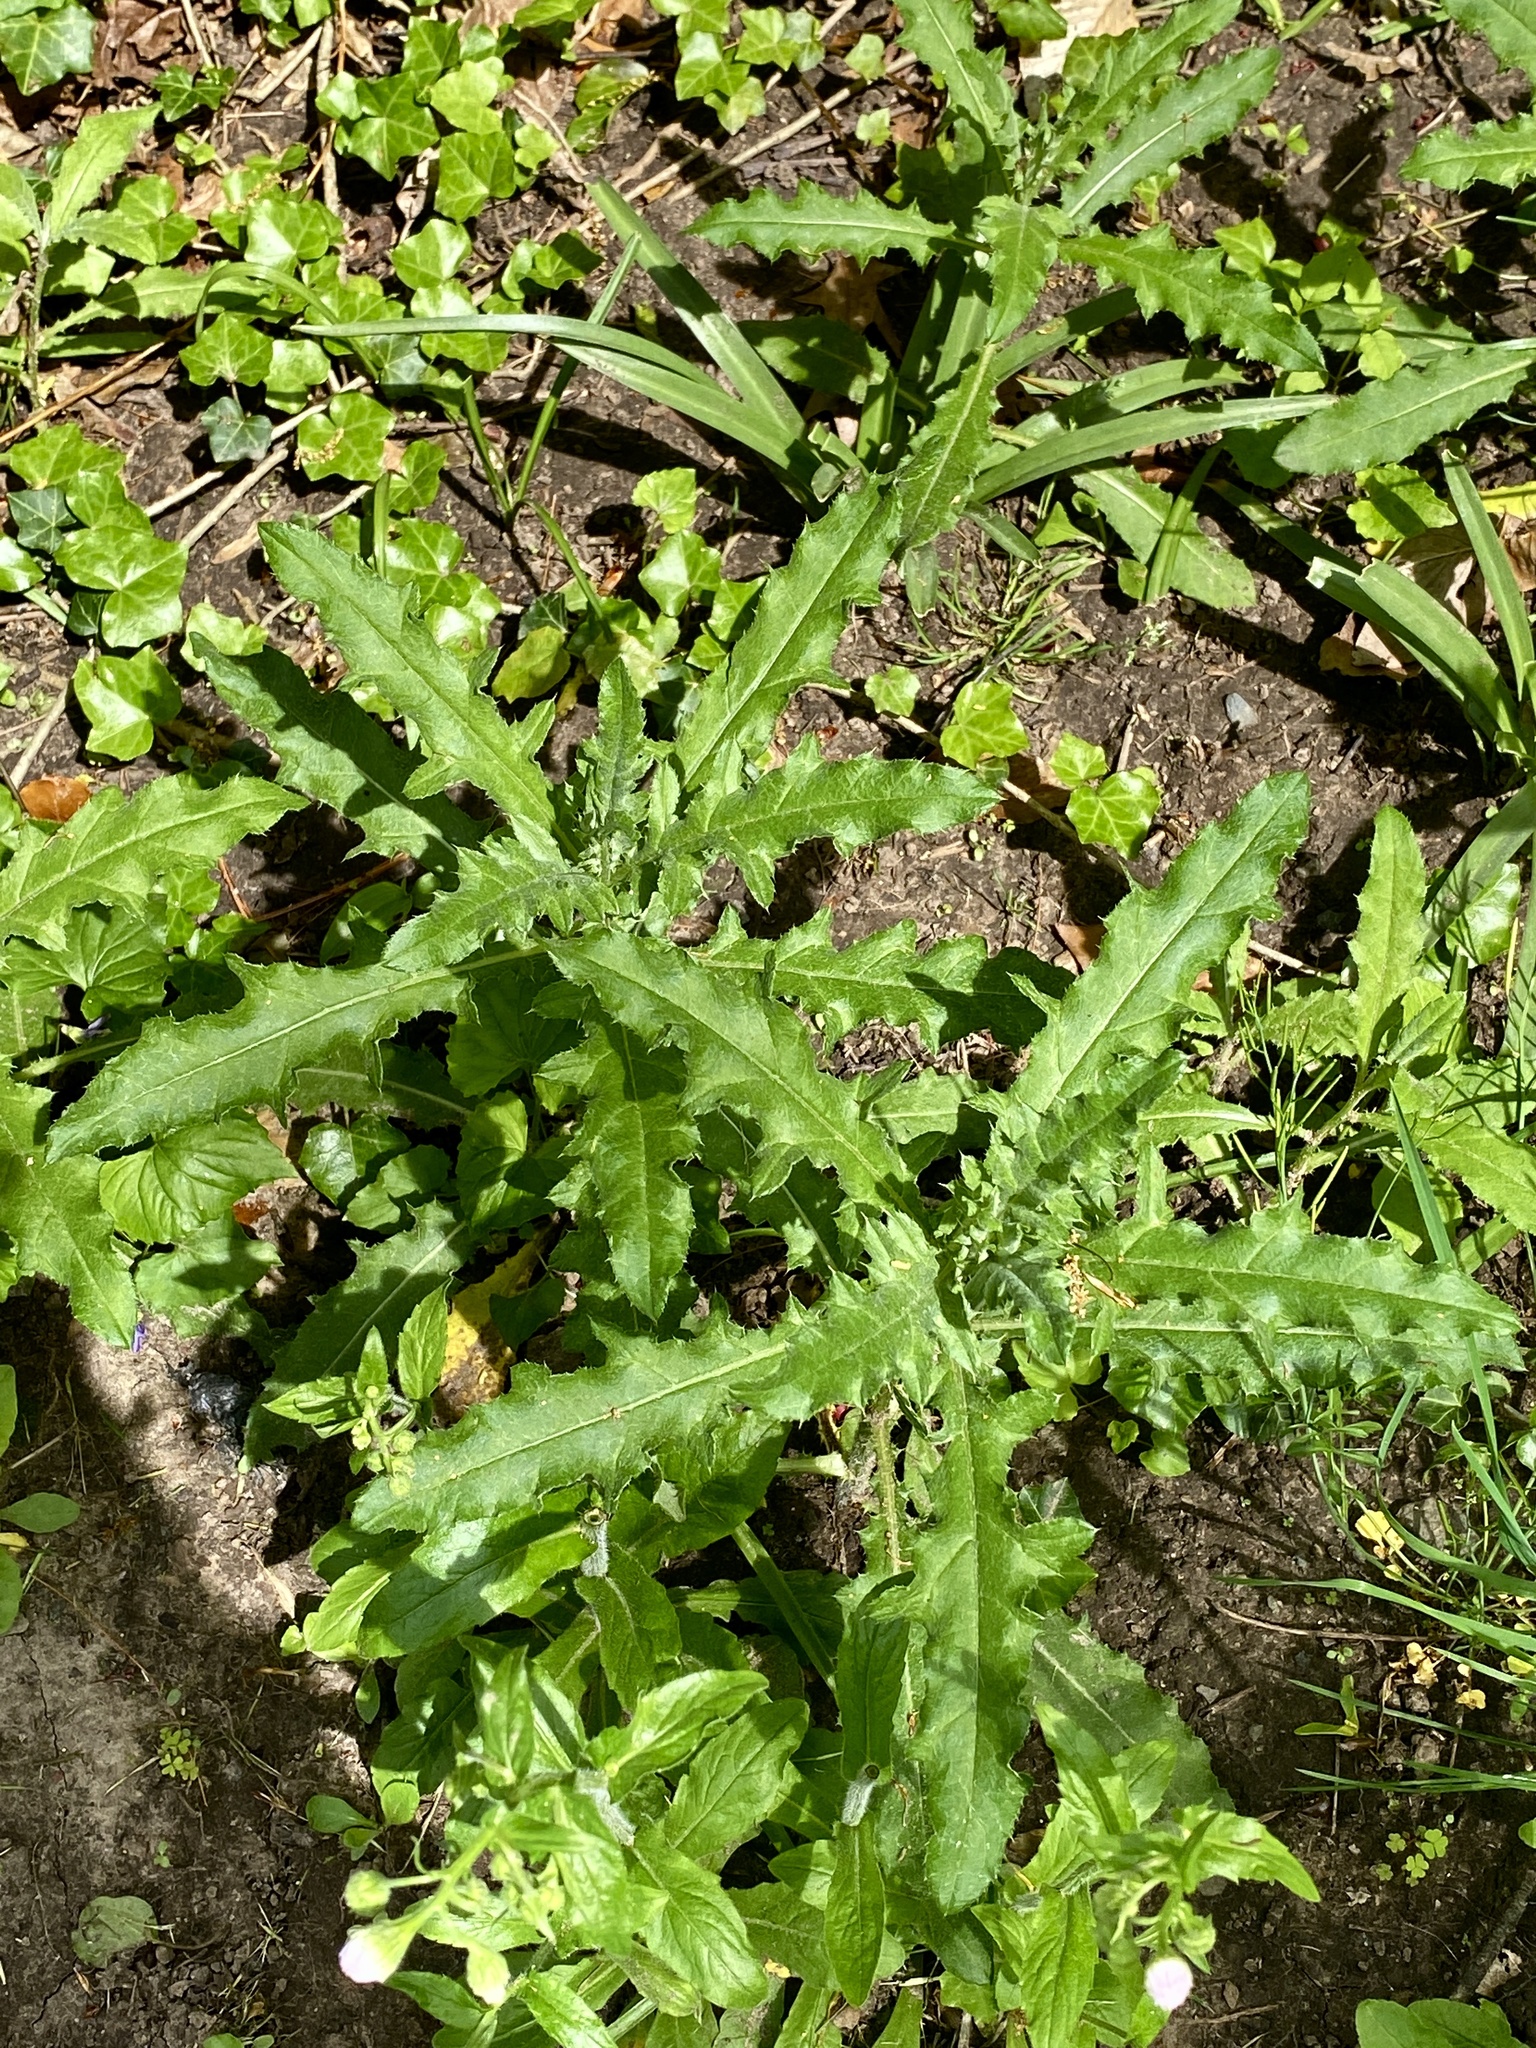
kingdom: Plantae
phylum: Tracheophyta
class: Magnoliopsida
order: Asterales
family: Asteraceae
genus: Cirsium
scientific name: Cirsium arvense
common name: Creeping thistle
